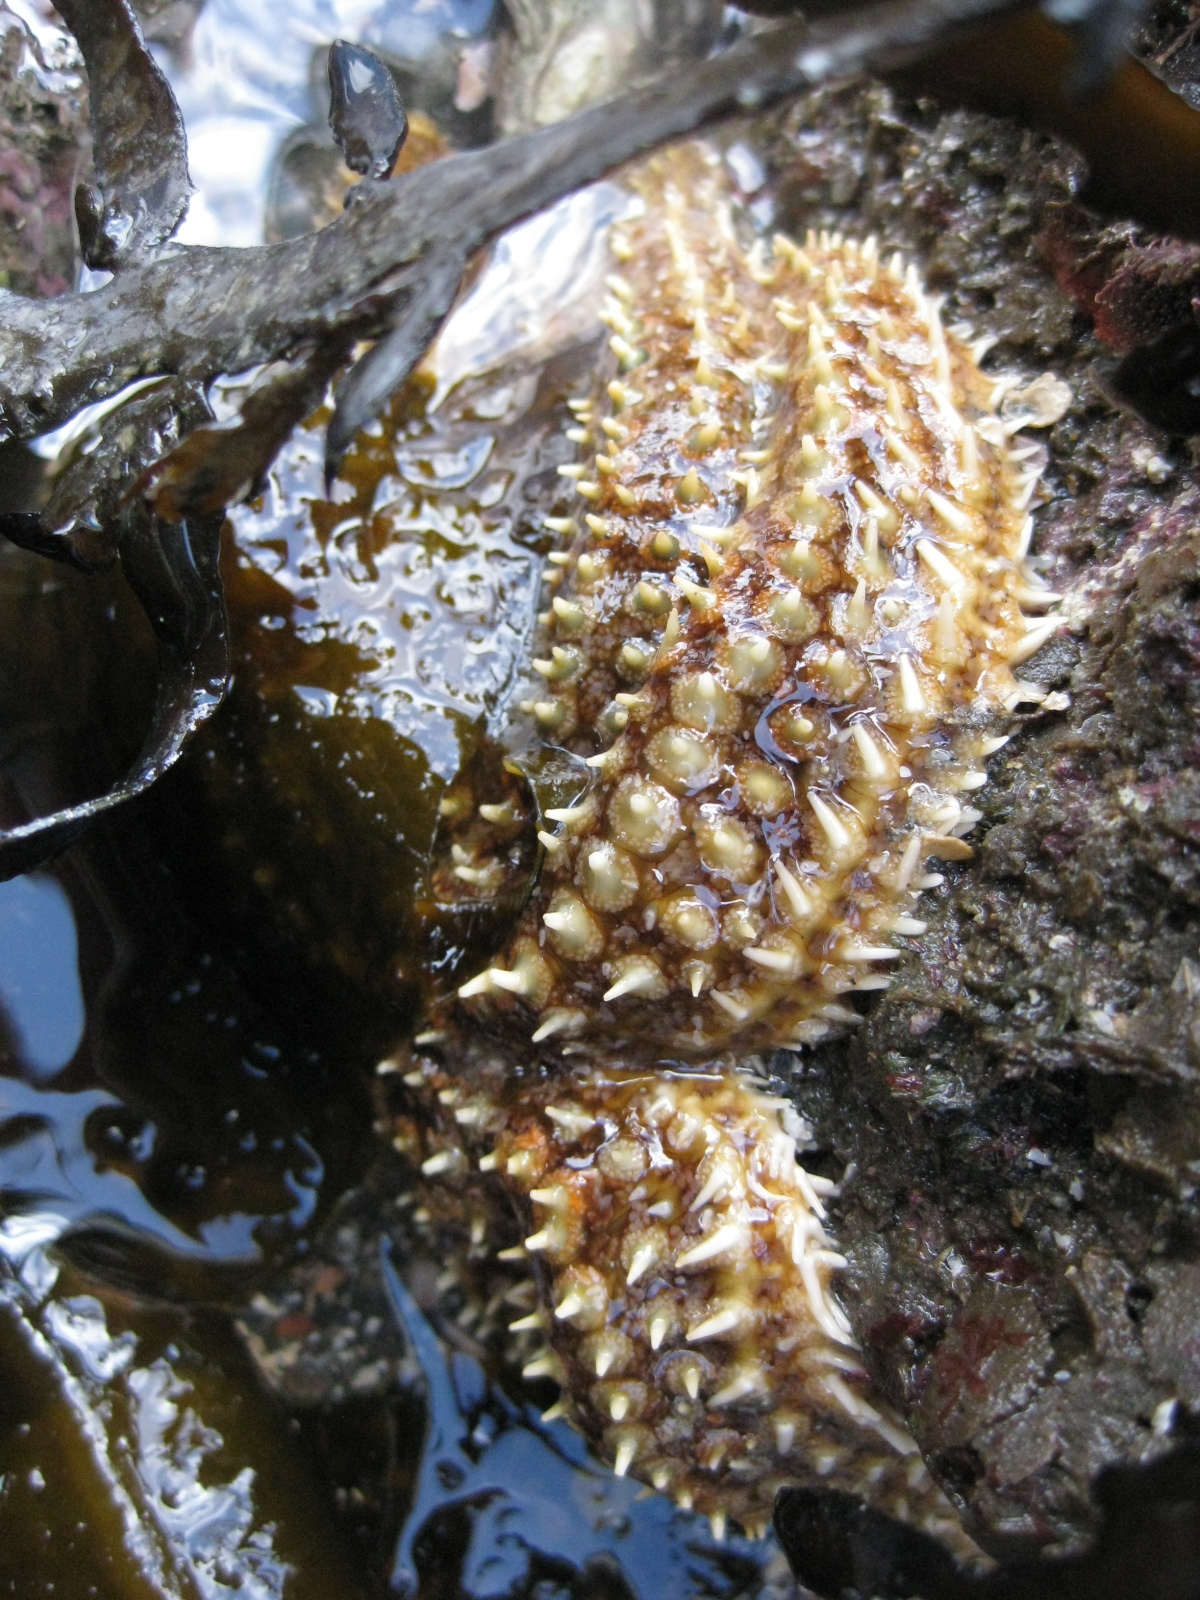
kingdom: Animalia
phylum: Echinodermata
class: Asteroidea
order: Forcipulatida
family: Asteriidae
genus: Coscinasterias
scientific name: Coscinasterias muricata
